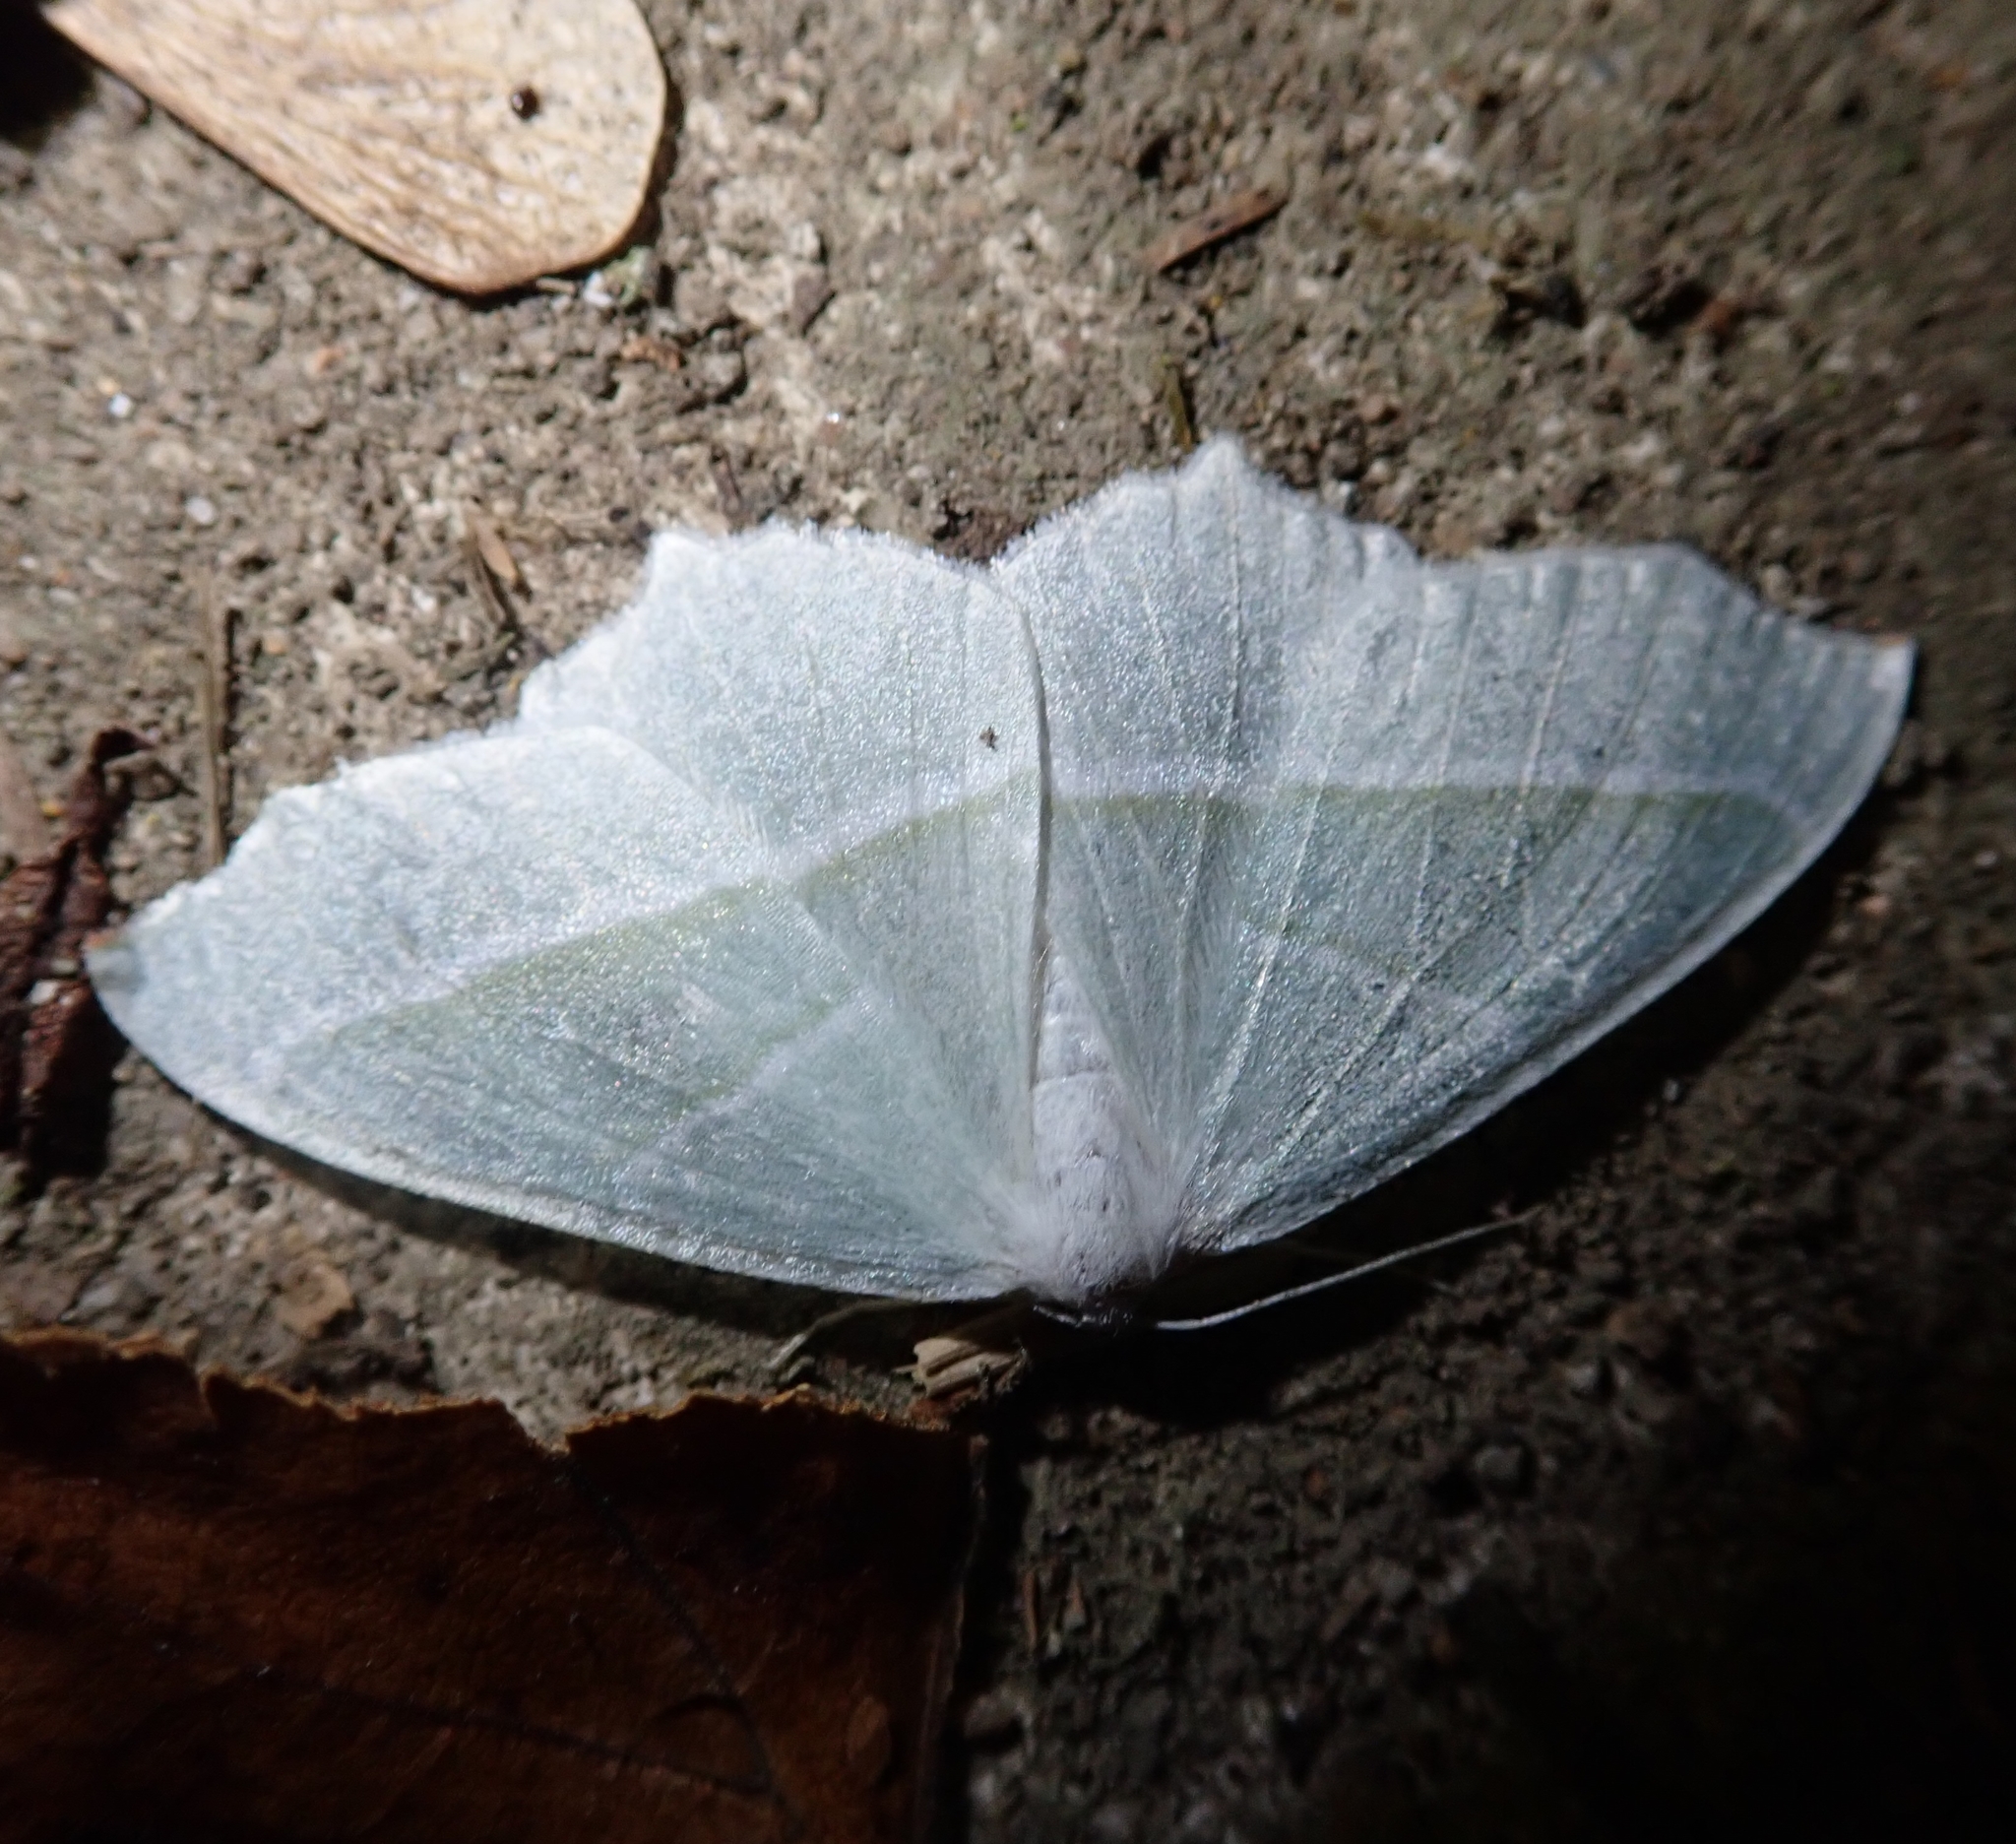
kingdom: Animalia
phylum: Arthropoda
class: Insecta
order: Lepidoptera
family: Geometridae
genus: Campaea
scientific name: Campaea margaritaria
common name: Light emerald
